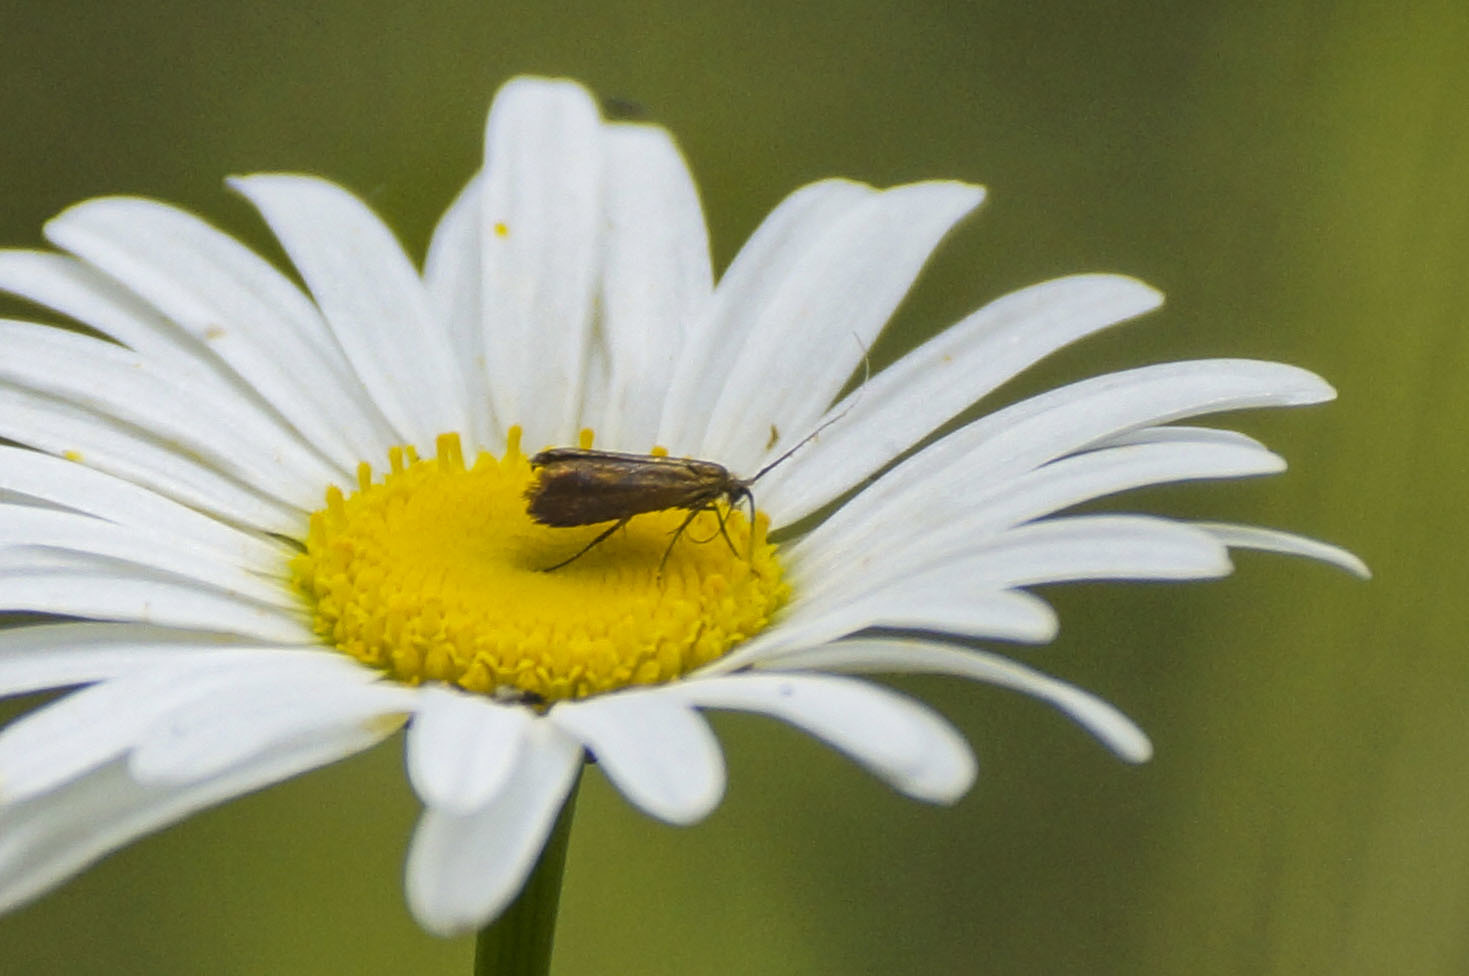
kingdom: Animalia
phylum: Arthropoda
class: Insecta
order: Lepidoptera
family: Adelidae
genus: Adela
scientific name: Adela violella
